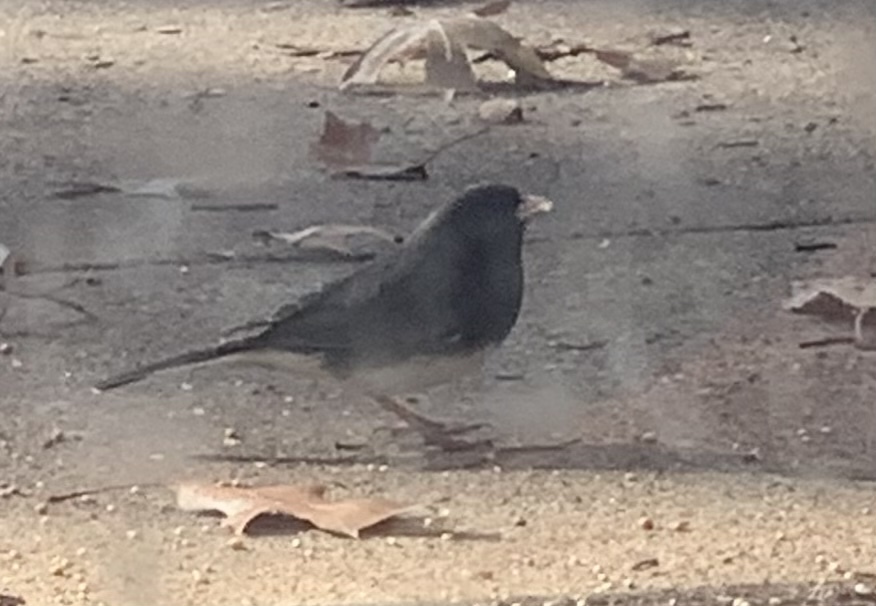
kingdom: Animalia
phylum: Chordata
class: Aves
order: Passeriformes
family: Passerellidae
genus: Junco
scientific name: Junco hyemalis
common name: Dark-eyed junco
